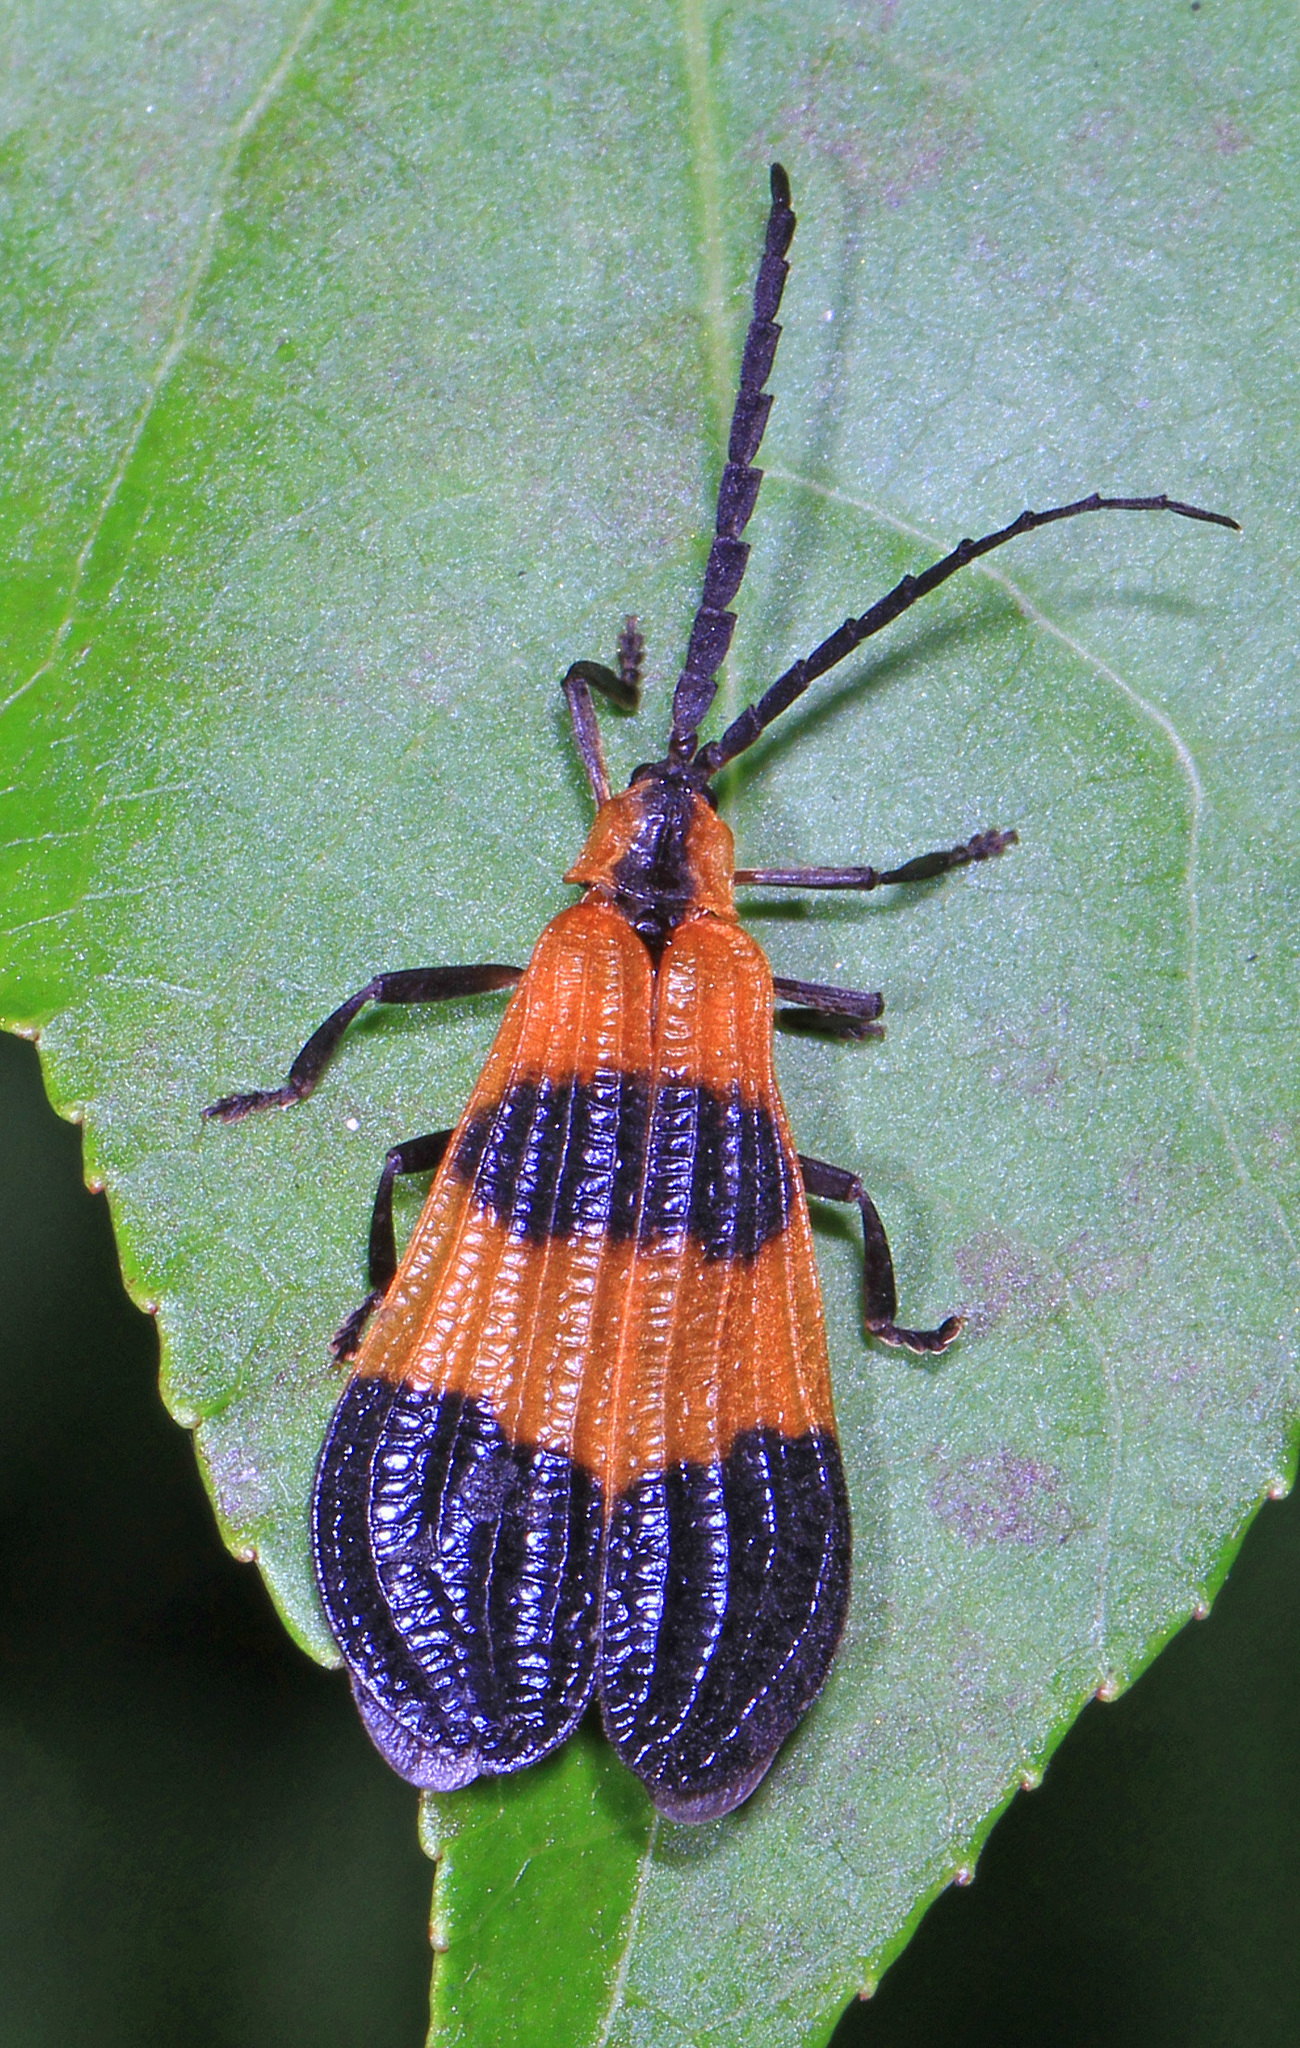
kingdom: Animalia
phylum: Arthropoda
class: Insecta
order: Coleoptera
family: Lycidae
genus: Calopteron
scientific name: Calopteron terminale
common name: End band net-winged beetle
